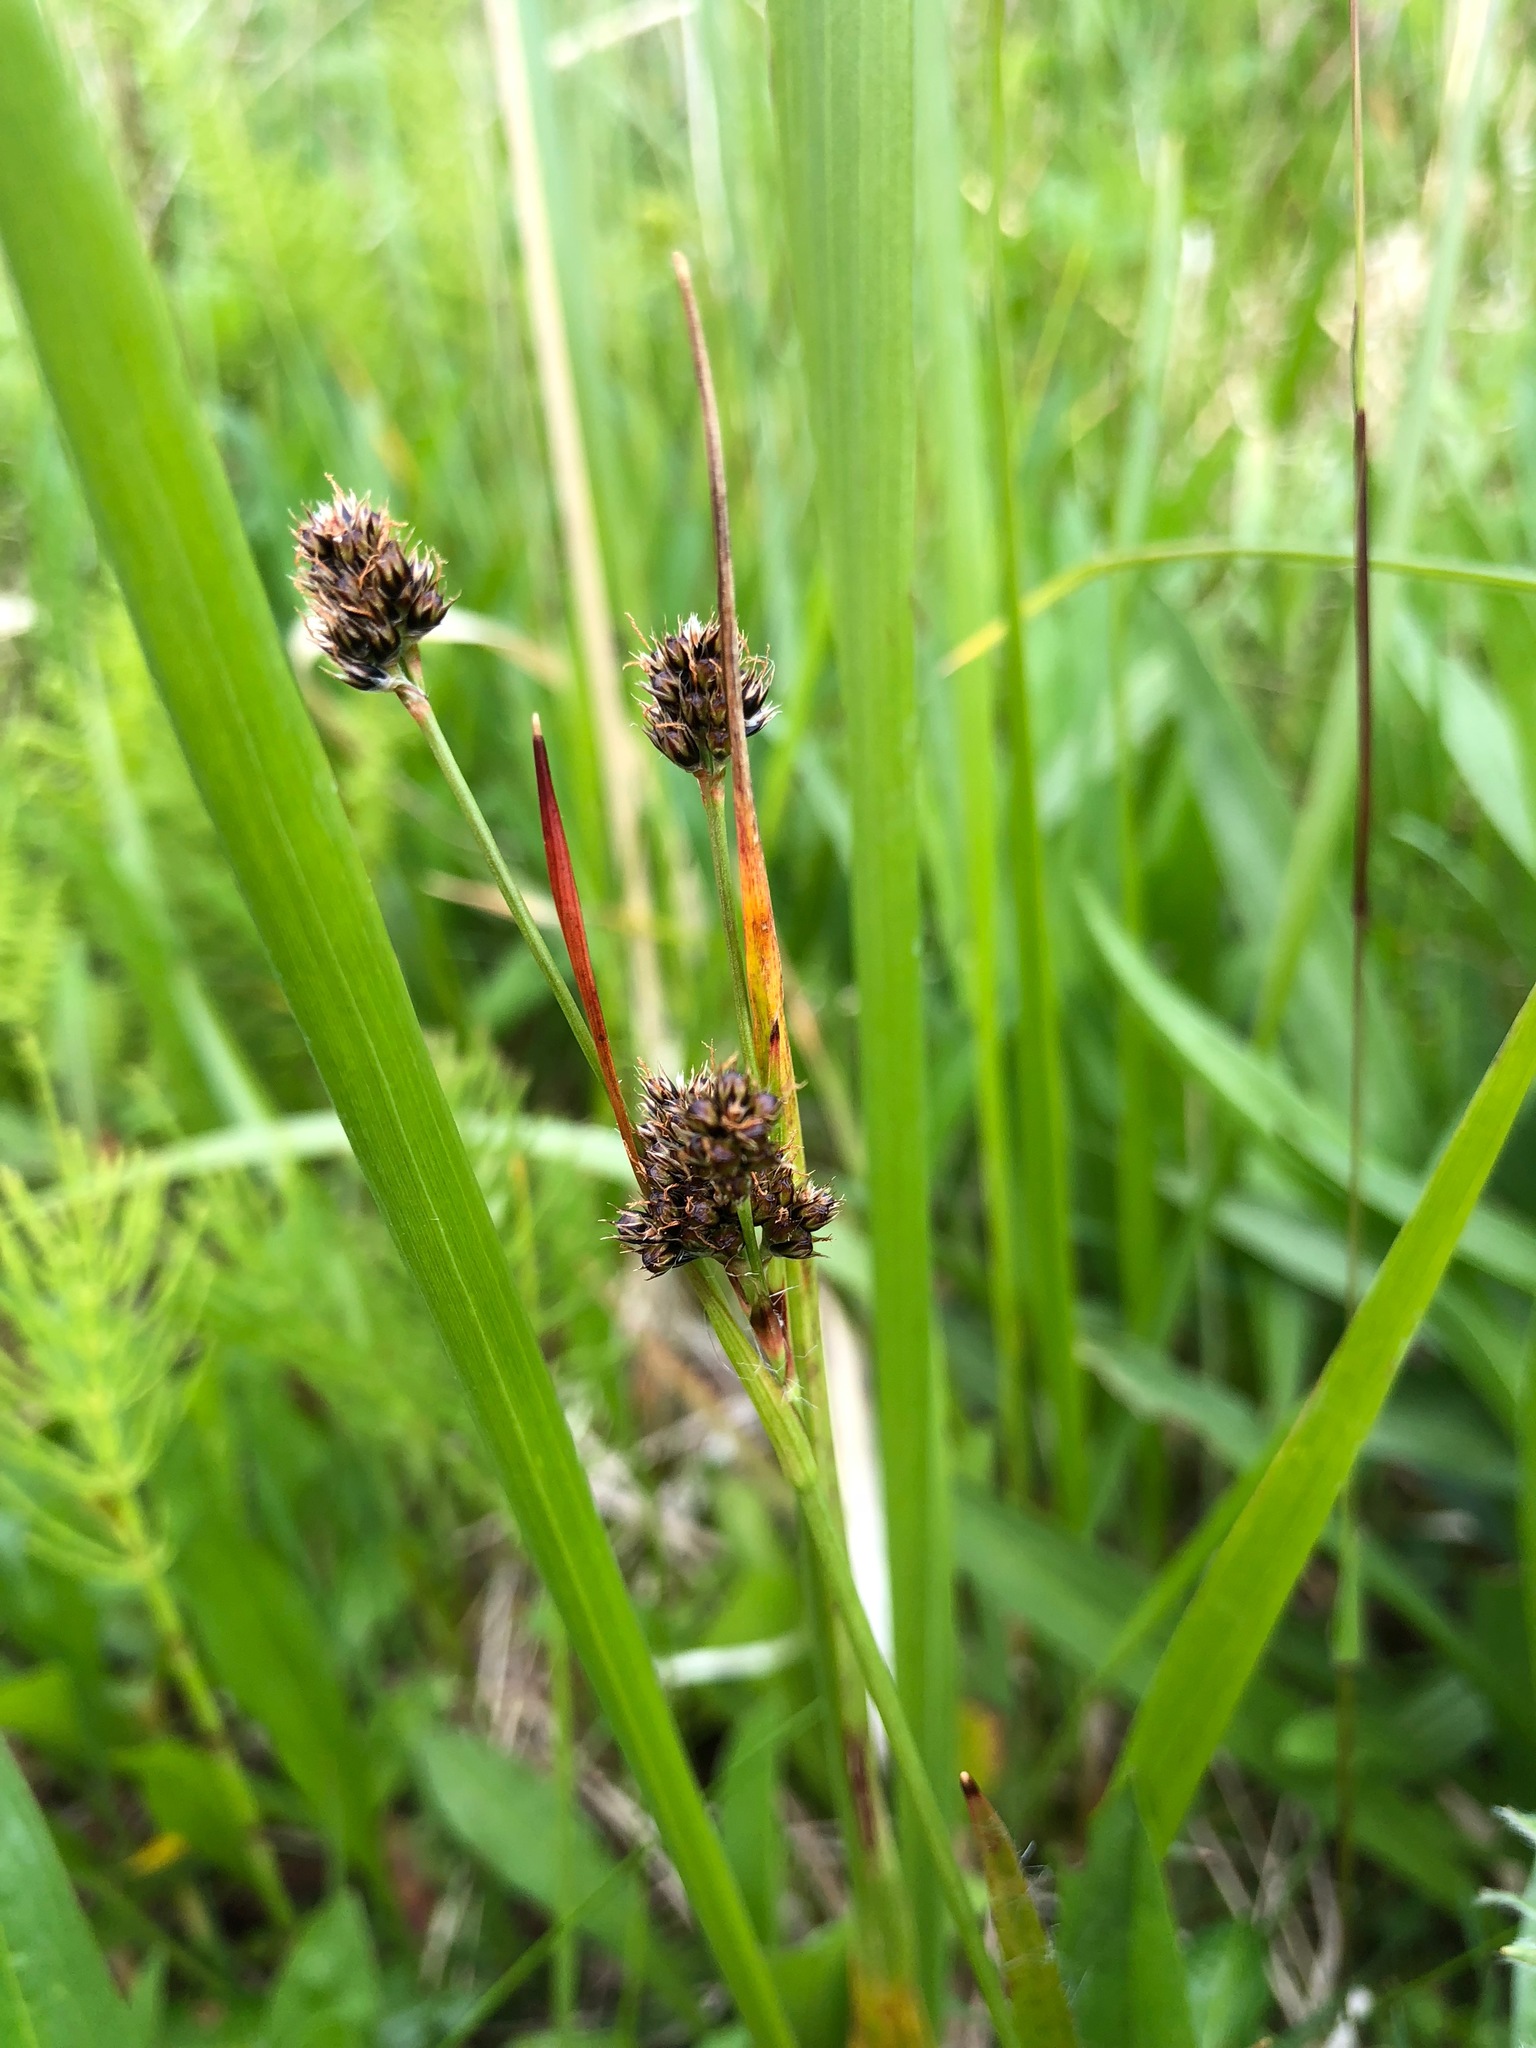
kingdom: Plantae
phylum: Tracheophyta
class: Liliopsida
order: Poales
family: Juncaceae
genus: Luzula
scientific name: Luzula multiflora
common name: Heath wood-rush
